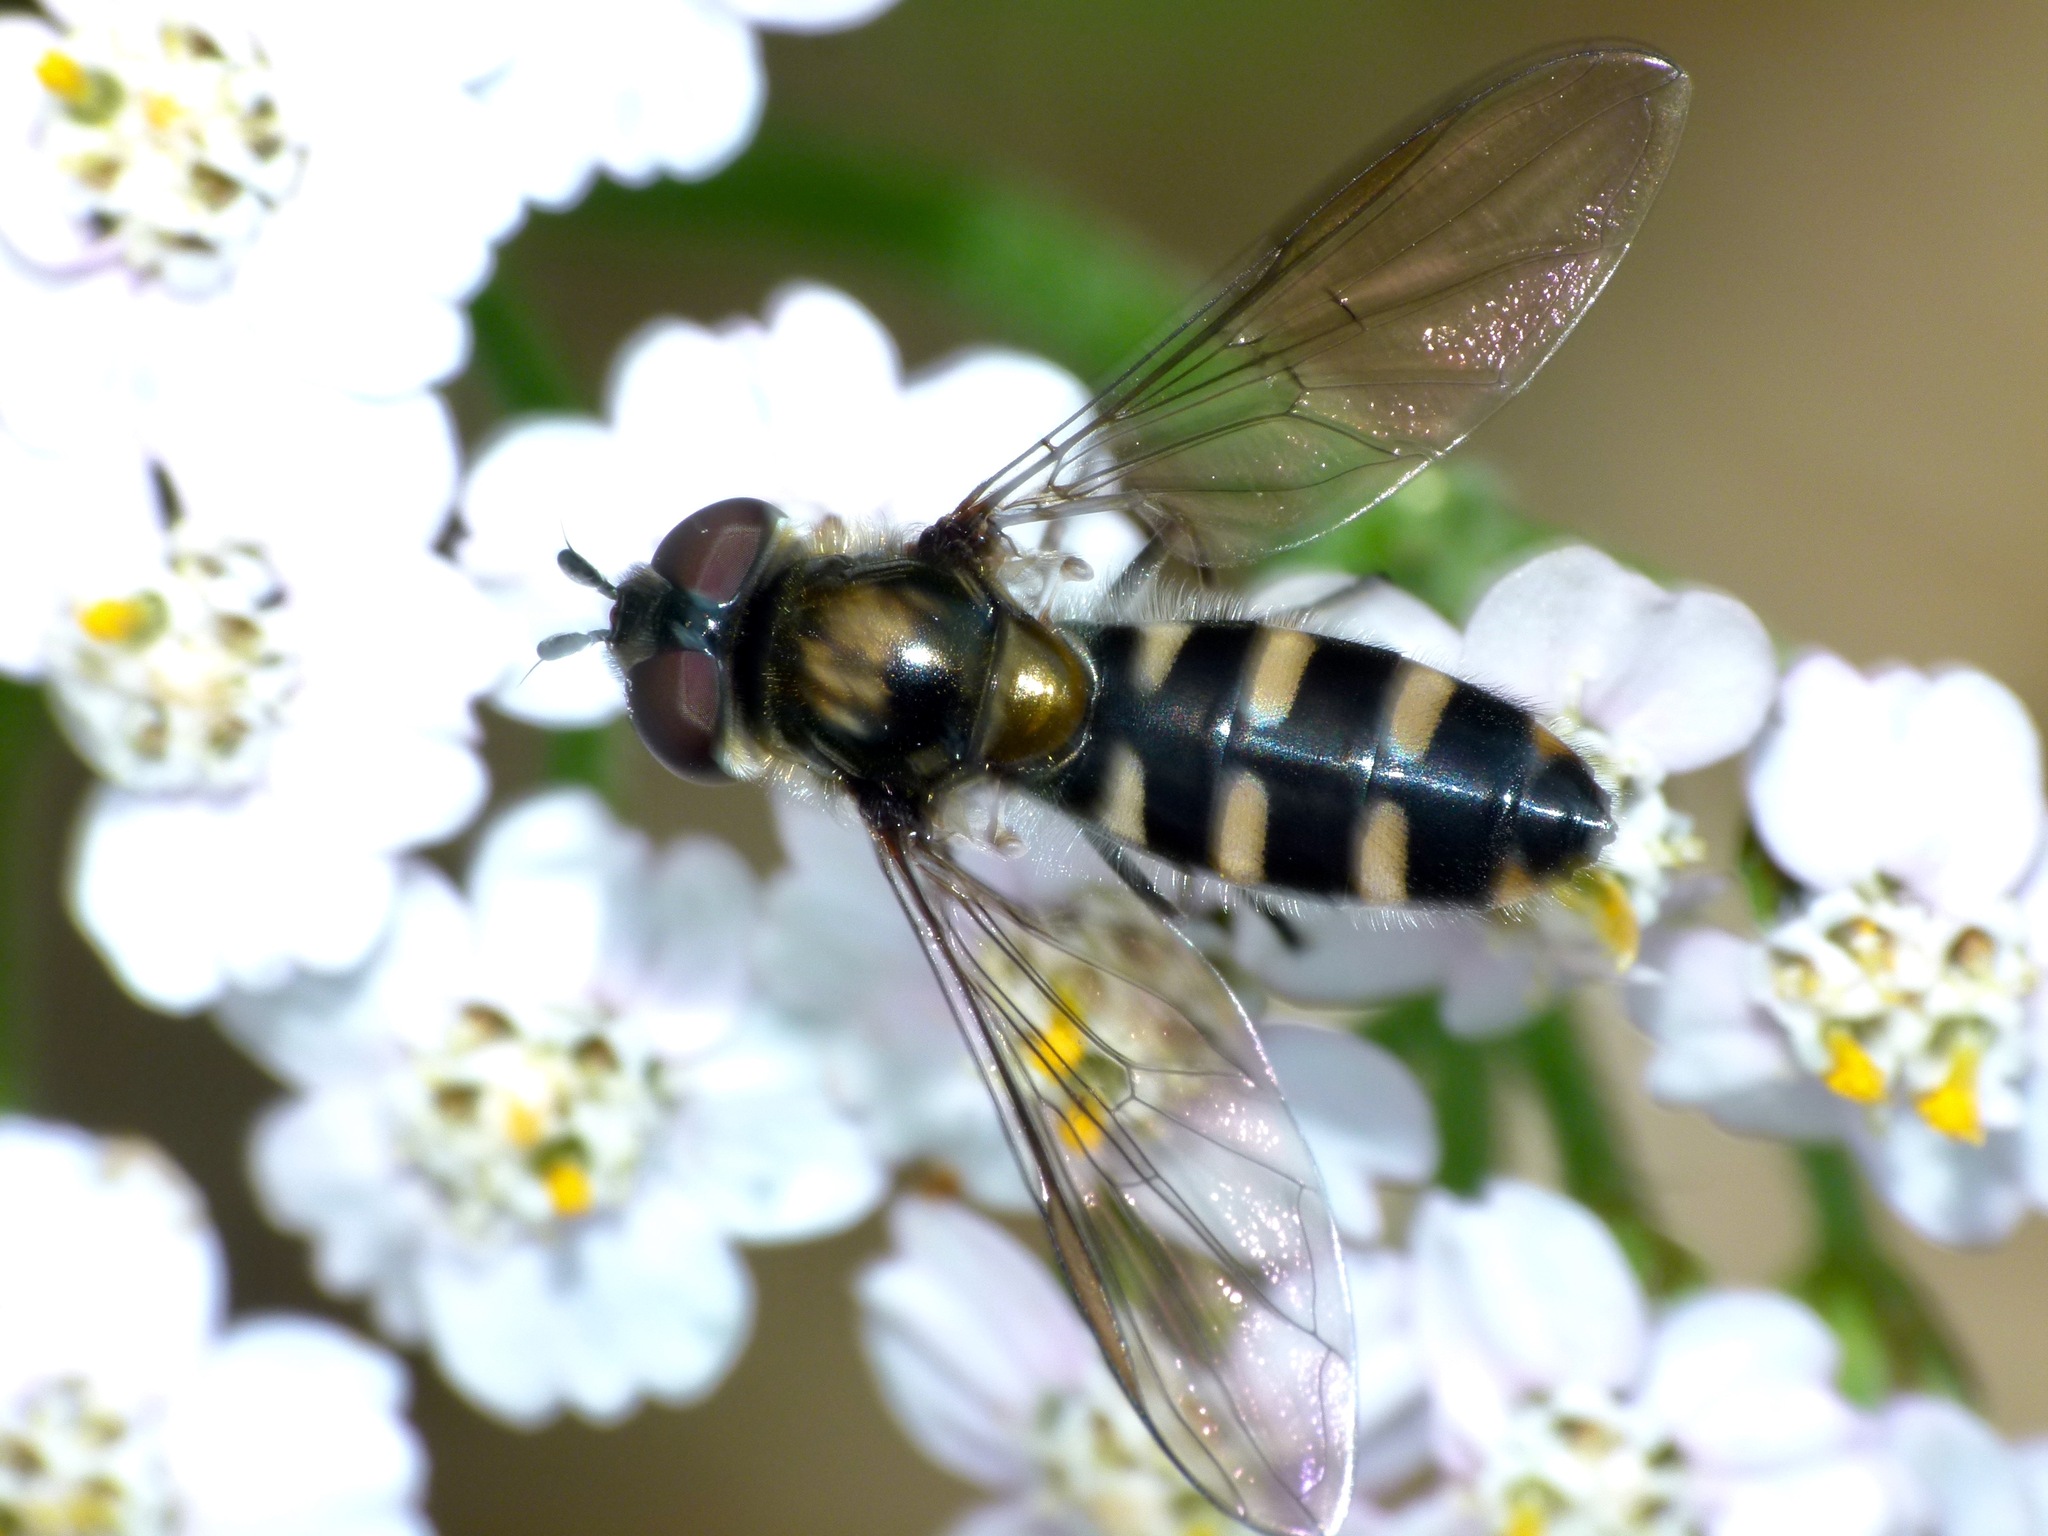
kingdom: Animalia
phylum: Arthropoda
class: Insecta
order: Diptera
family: Syrphidae
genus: Melangyna
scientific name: Melangyna novaezelandiae
